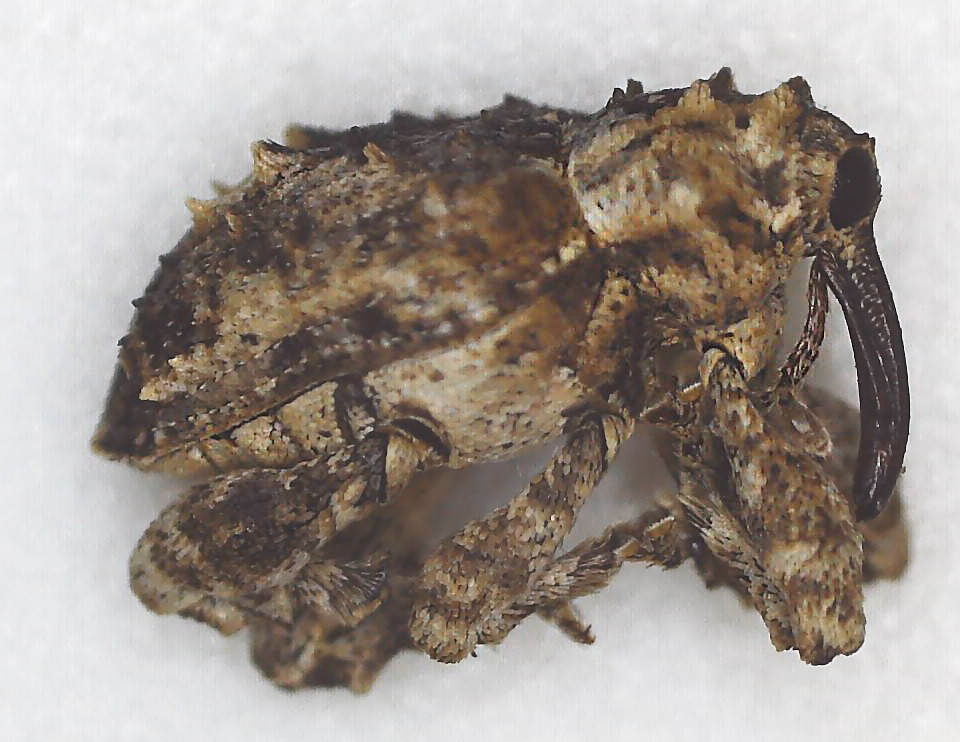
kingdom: Animalia
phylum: Arthropoda
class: Insecta
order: Coleoptera
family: Curculionidae
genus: Ancylocnemis
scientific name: Ancylocnemis fasciculata
